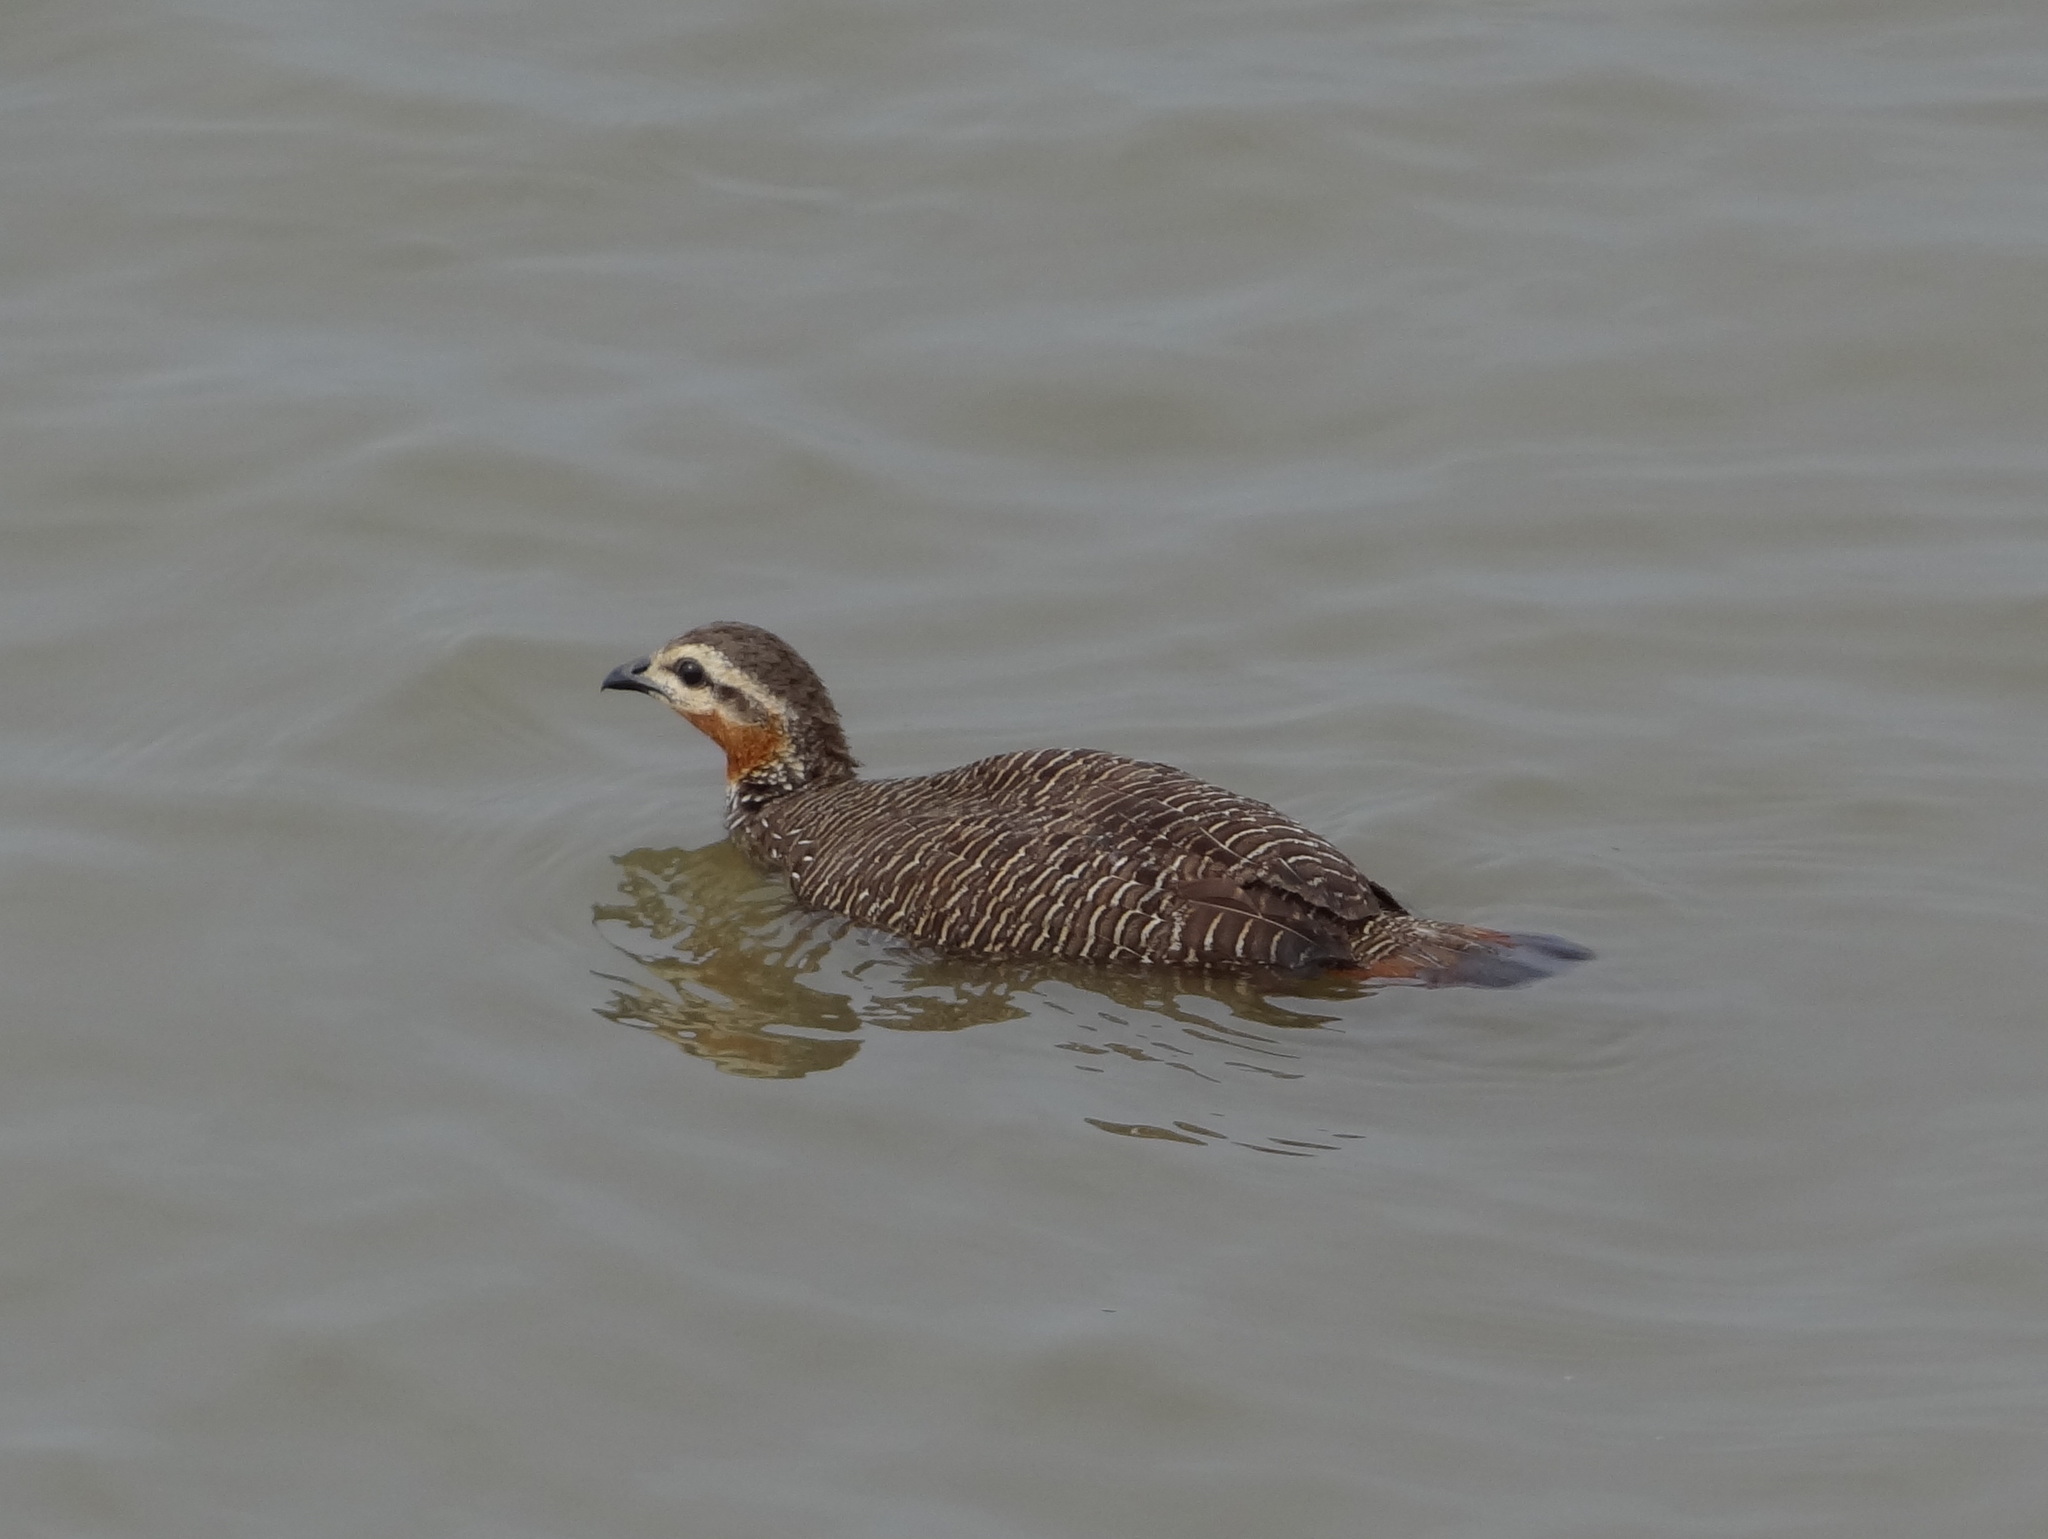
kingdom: Animalia
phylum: Chordata
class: Aves
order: Galliformes
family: Phasianidae
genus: Ortygornis
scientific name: Ortygornis gularis
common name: Swamp francolin
